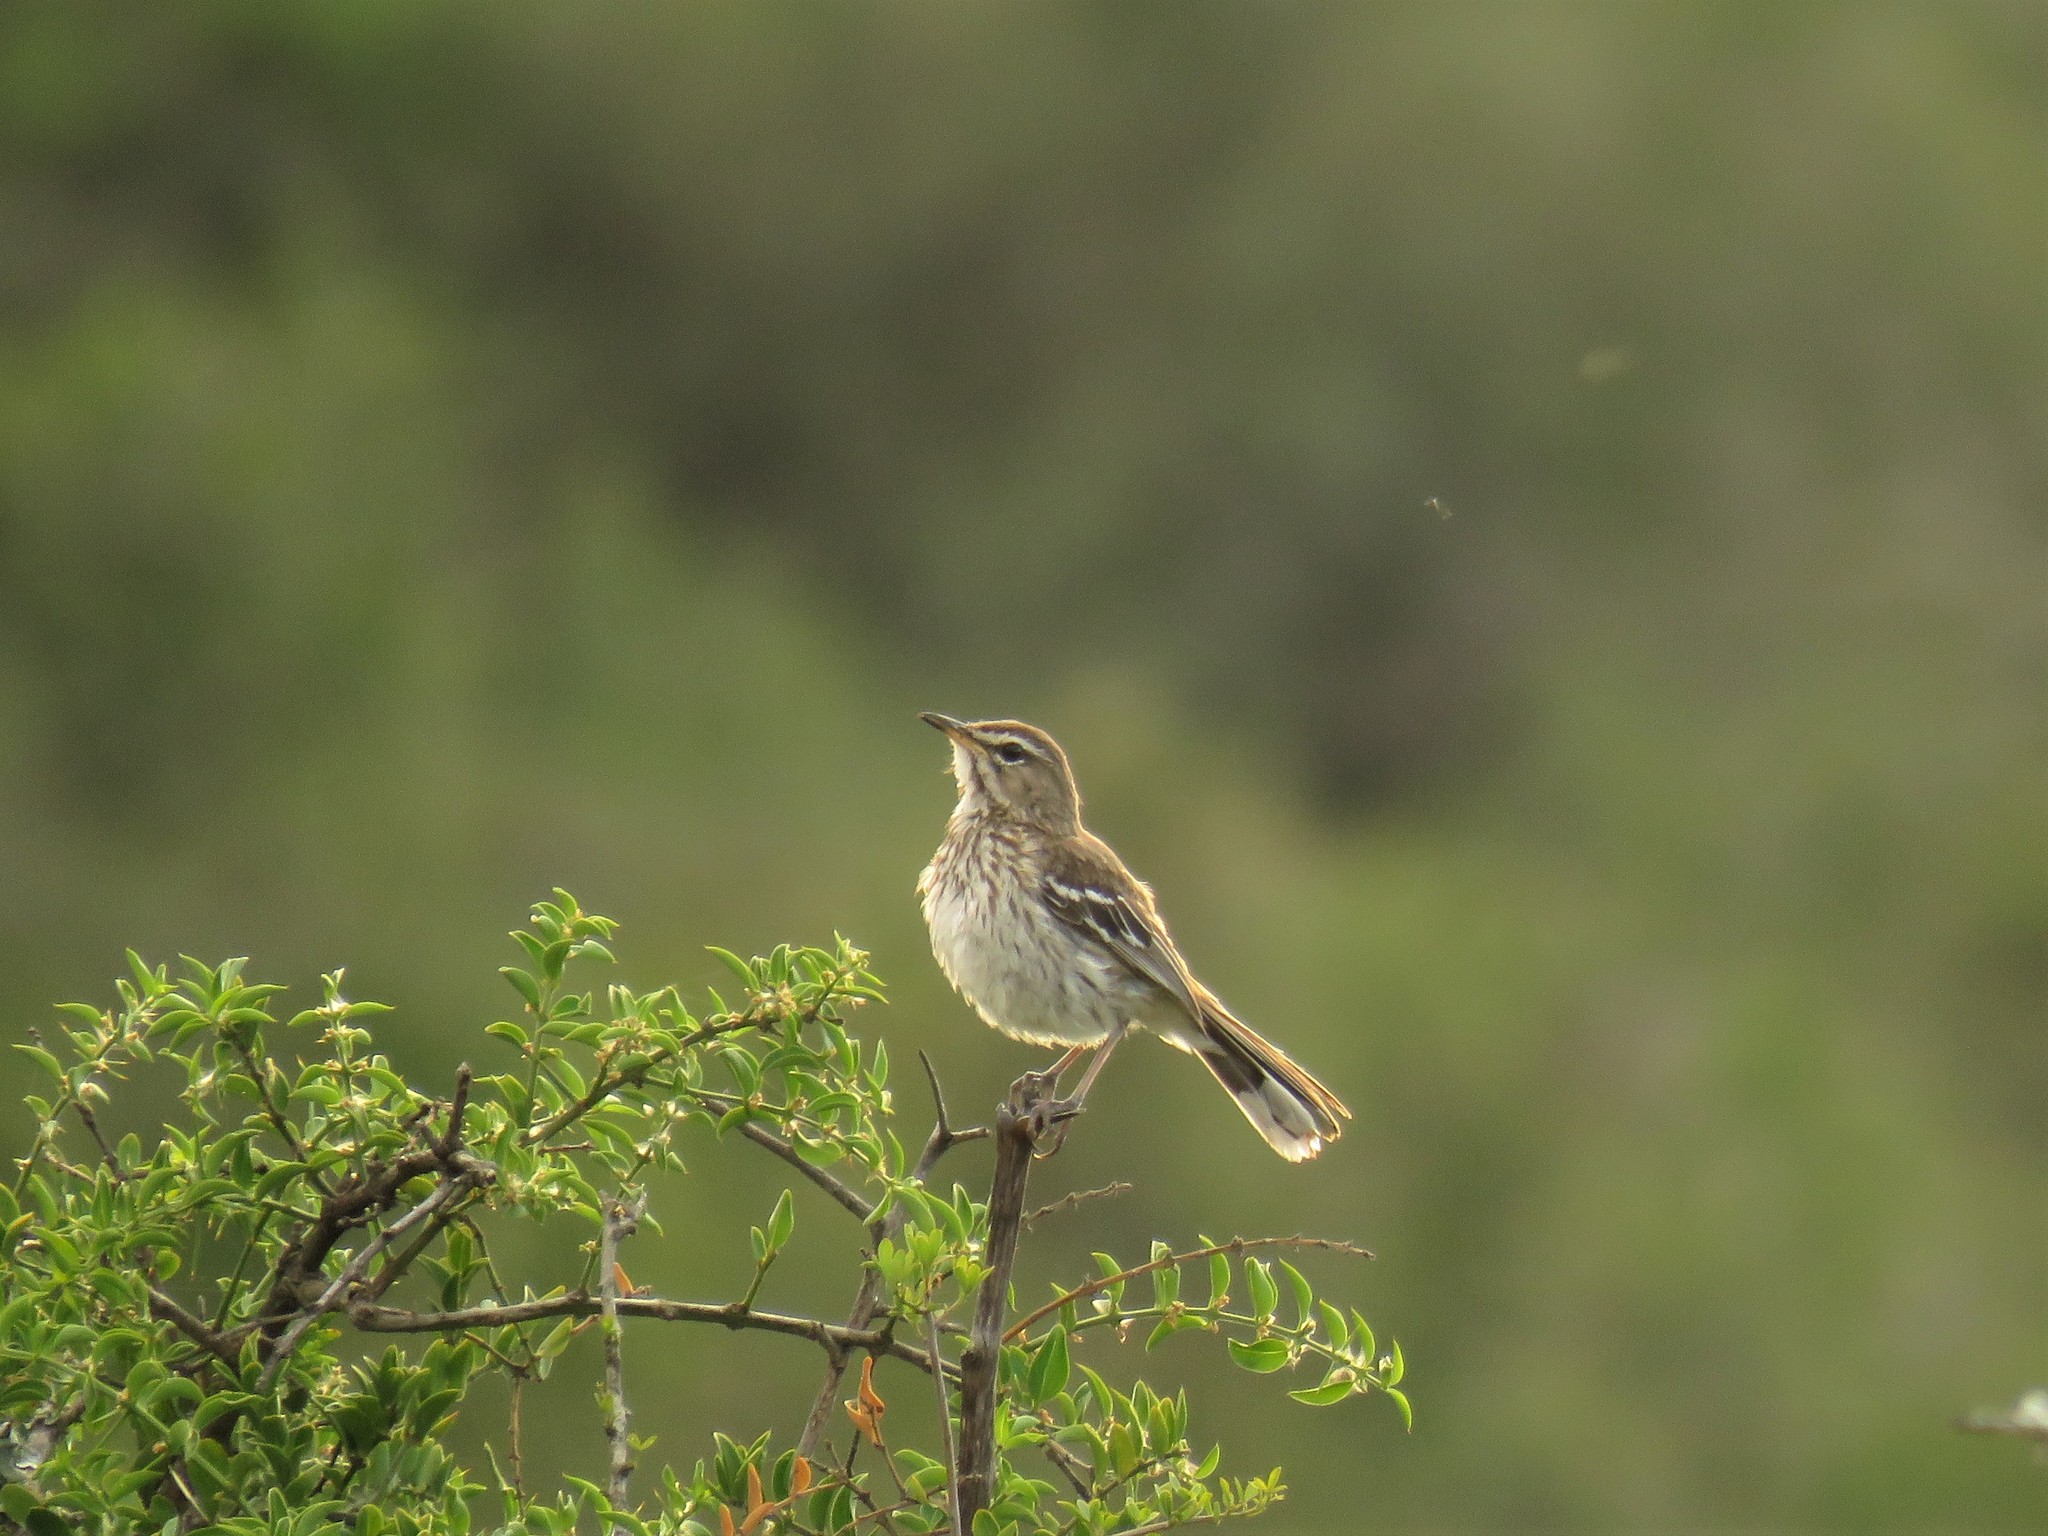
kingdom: Animalia
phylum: Chordata
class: Aves
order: Passeriformes
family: Muscicapidae
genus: Erythropygia
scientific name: Erythropygia leucophrys
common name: White-browed scrub robin
